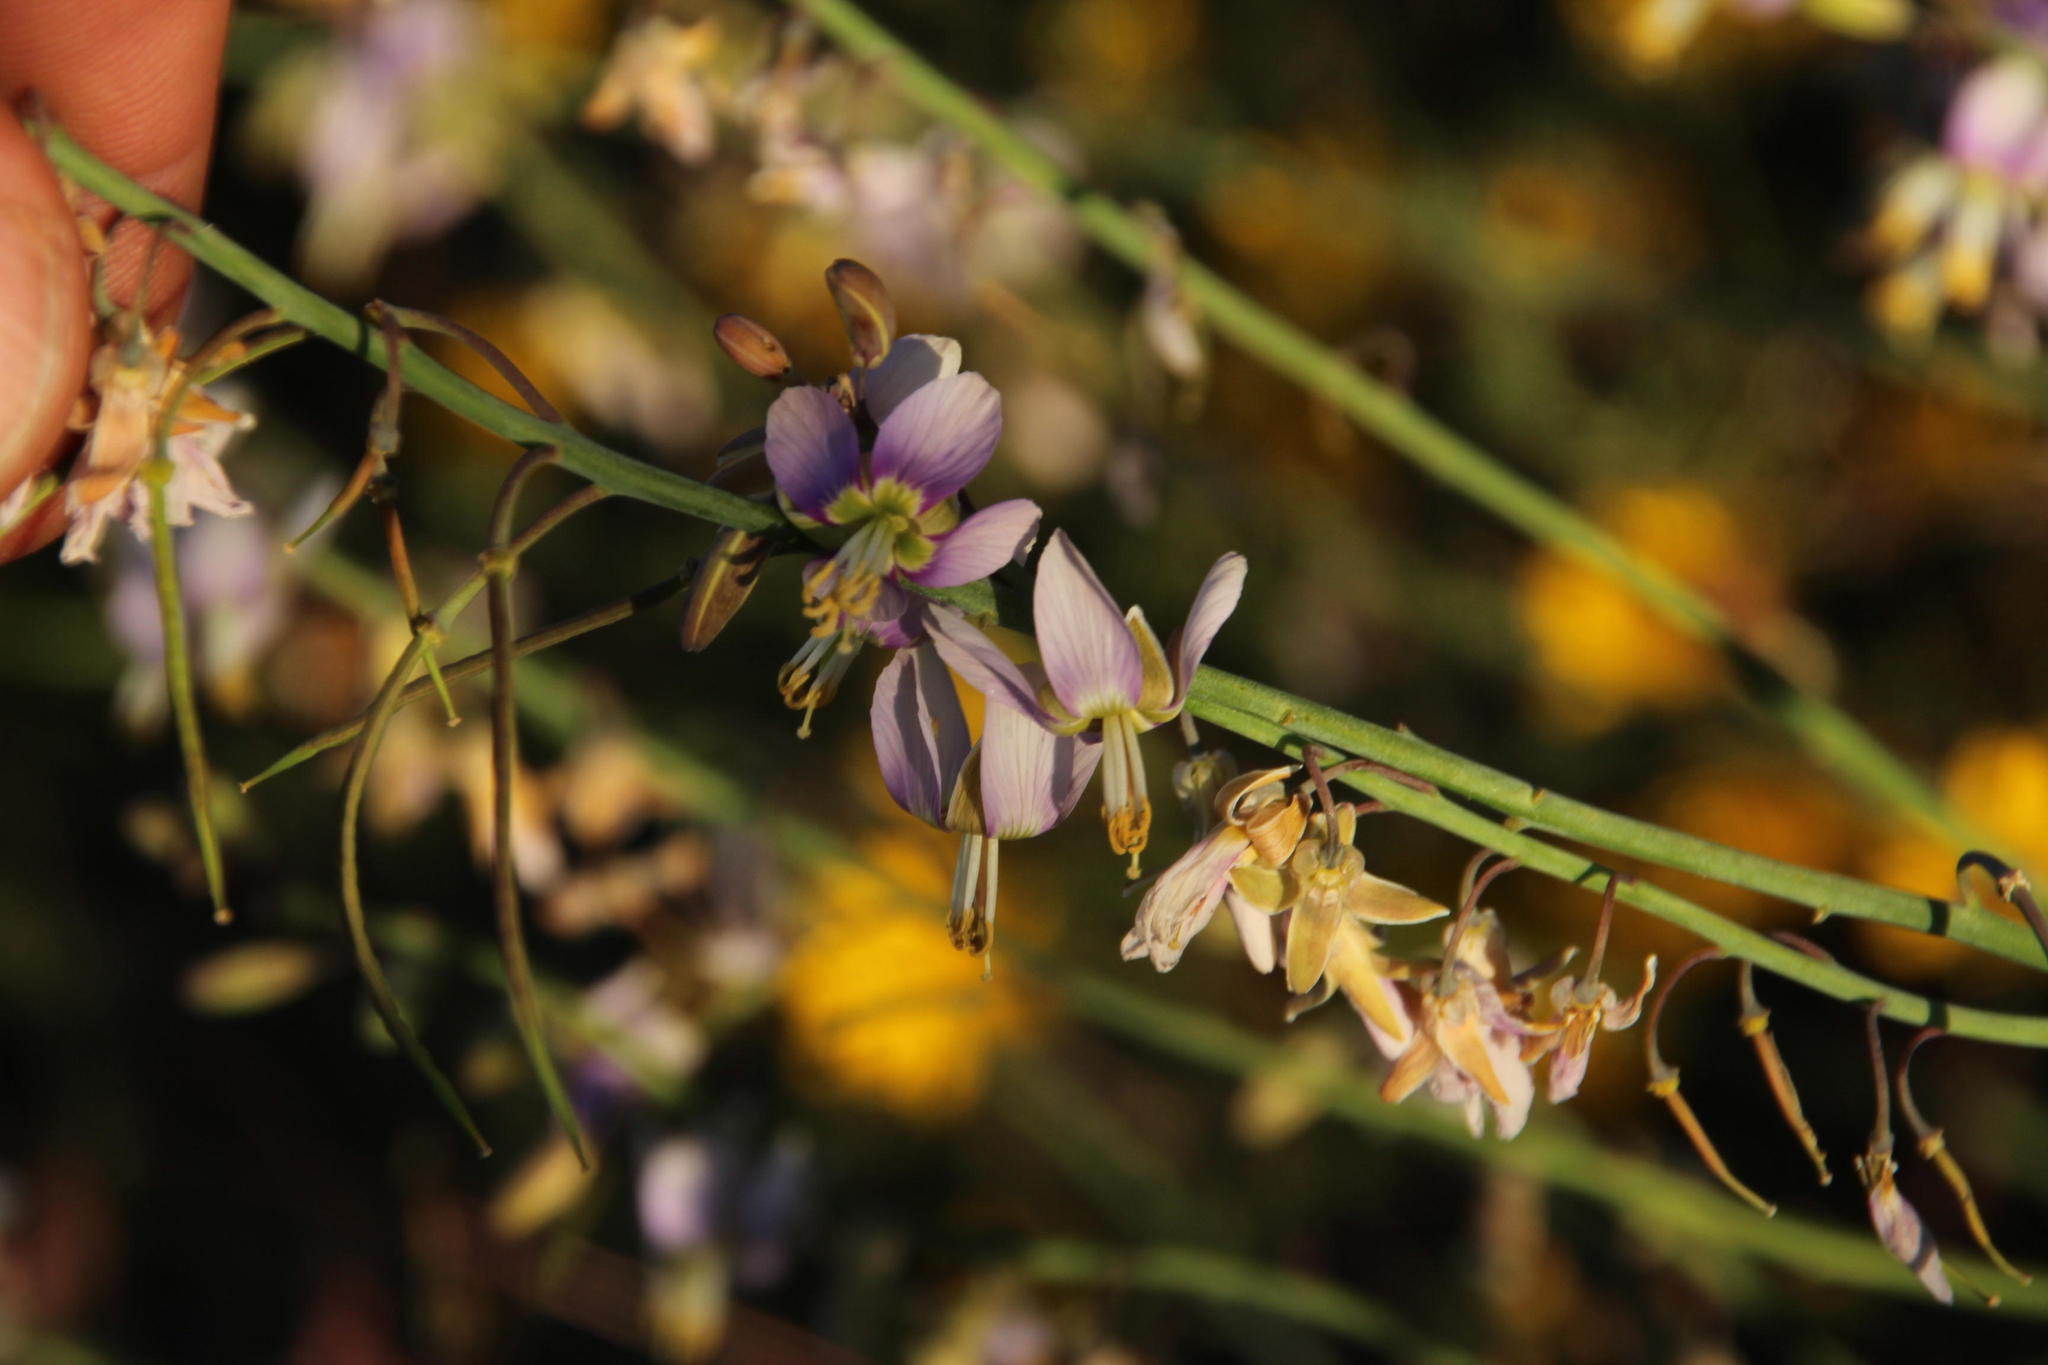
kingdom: Plantae
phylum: Tracheophyta
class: Magnoliopsida
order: Brassicales
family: Brassicaceae
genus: Heliophila
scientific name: Heliophila cornuta
